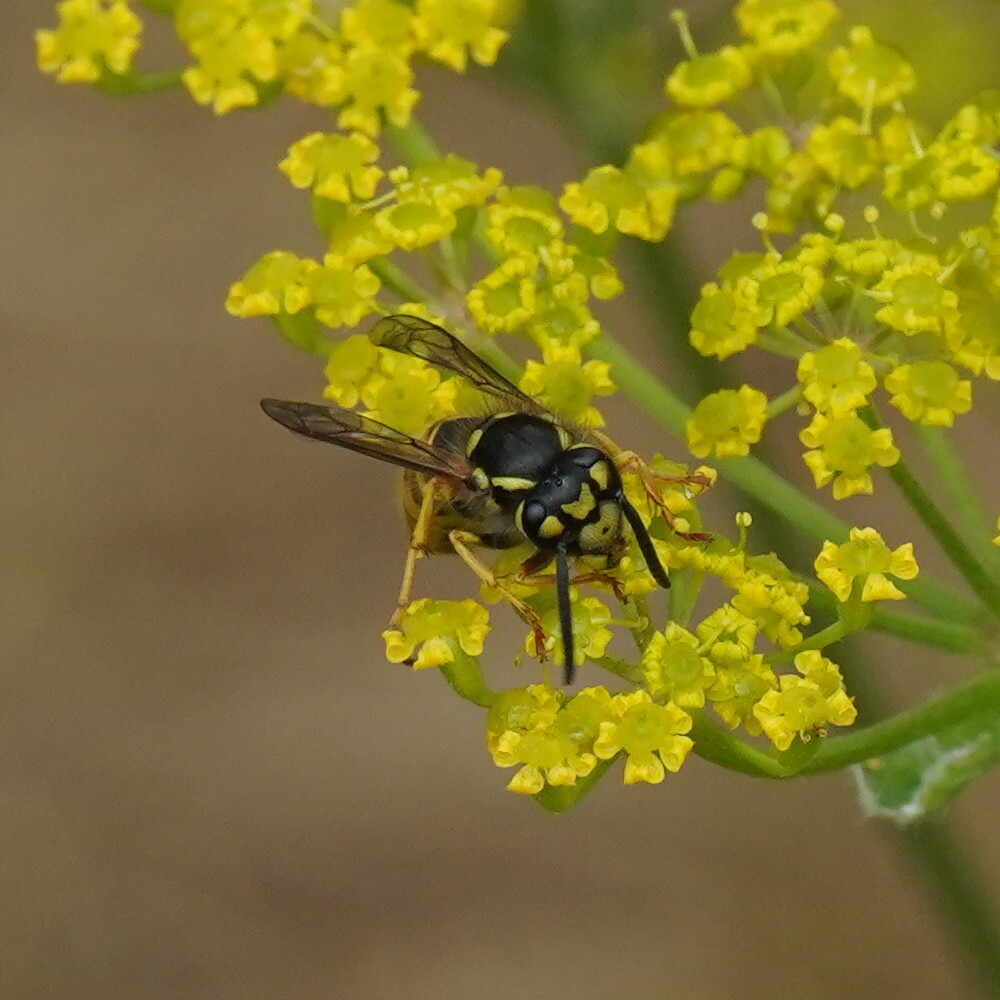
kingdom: Animalia
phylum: Arthropoda
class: Insecta
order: Hymenoptera
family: Vespidae
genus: Vespula
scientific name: Vespula germanica
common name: German wasp
